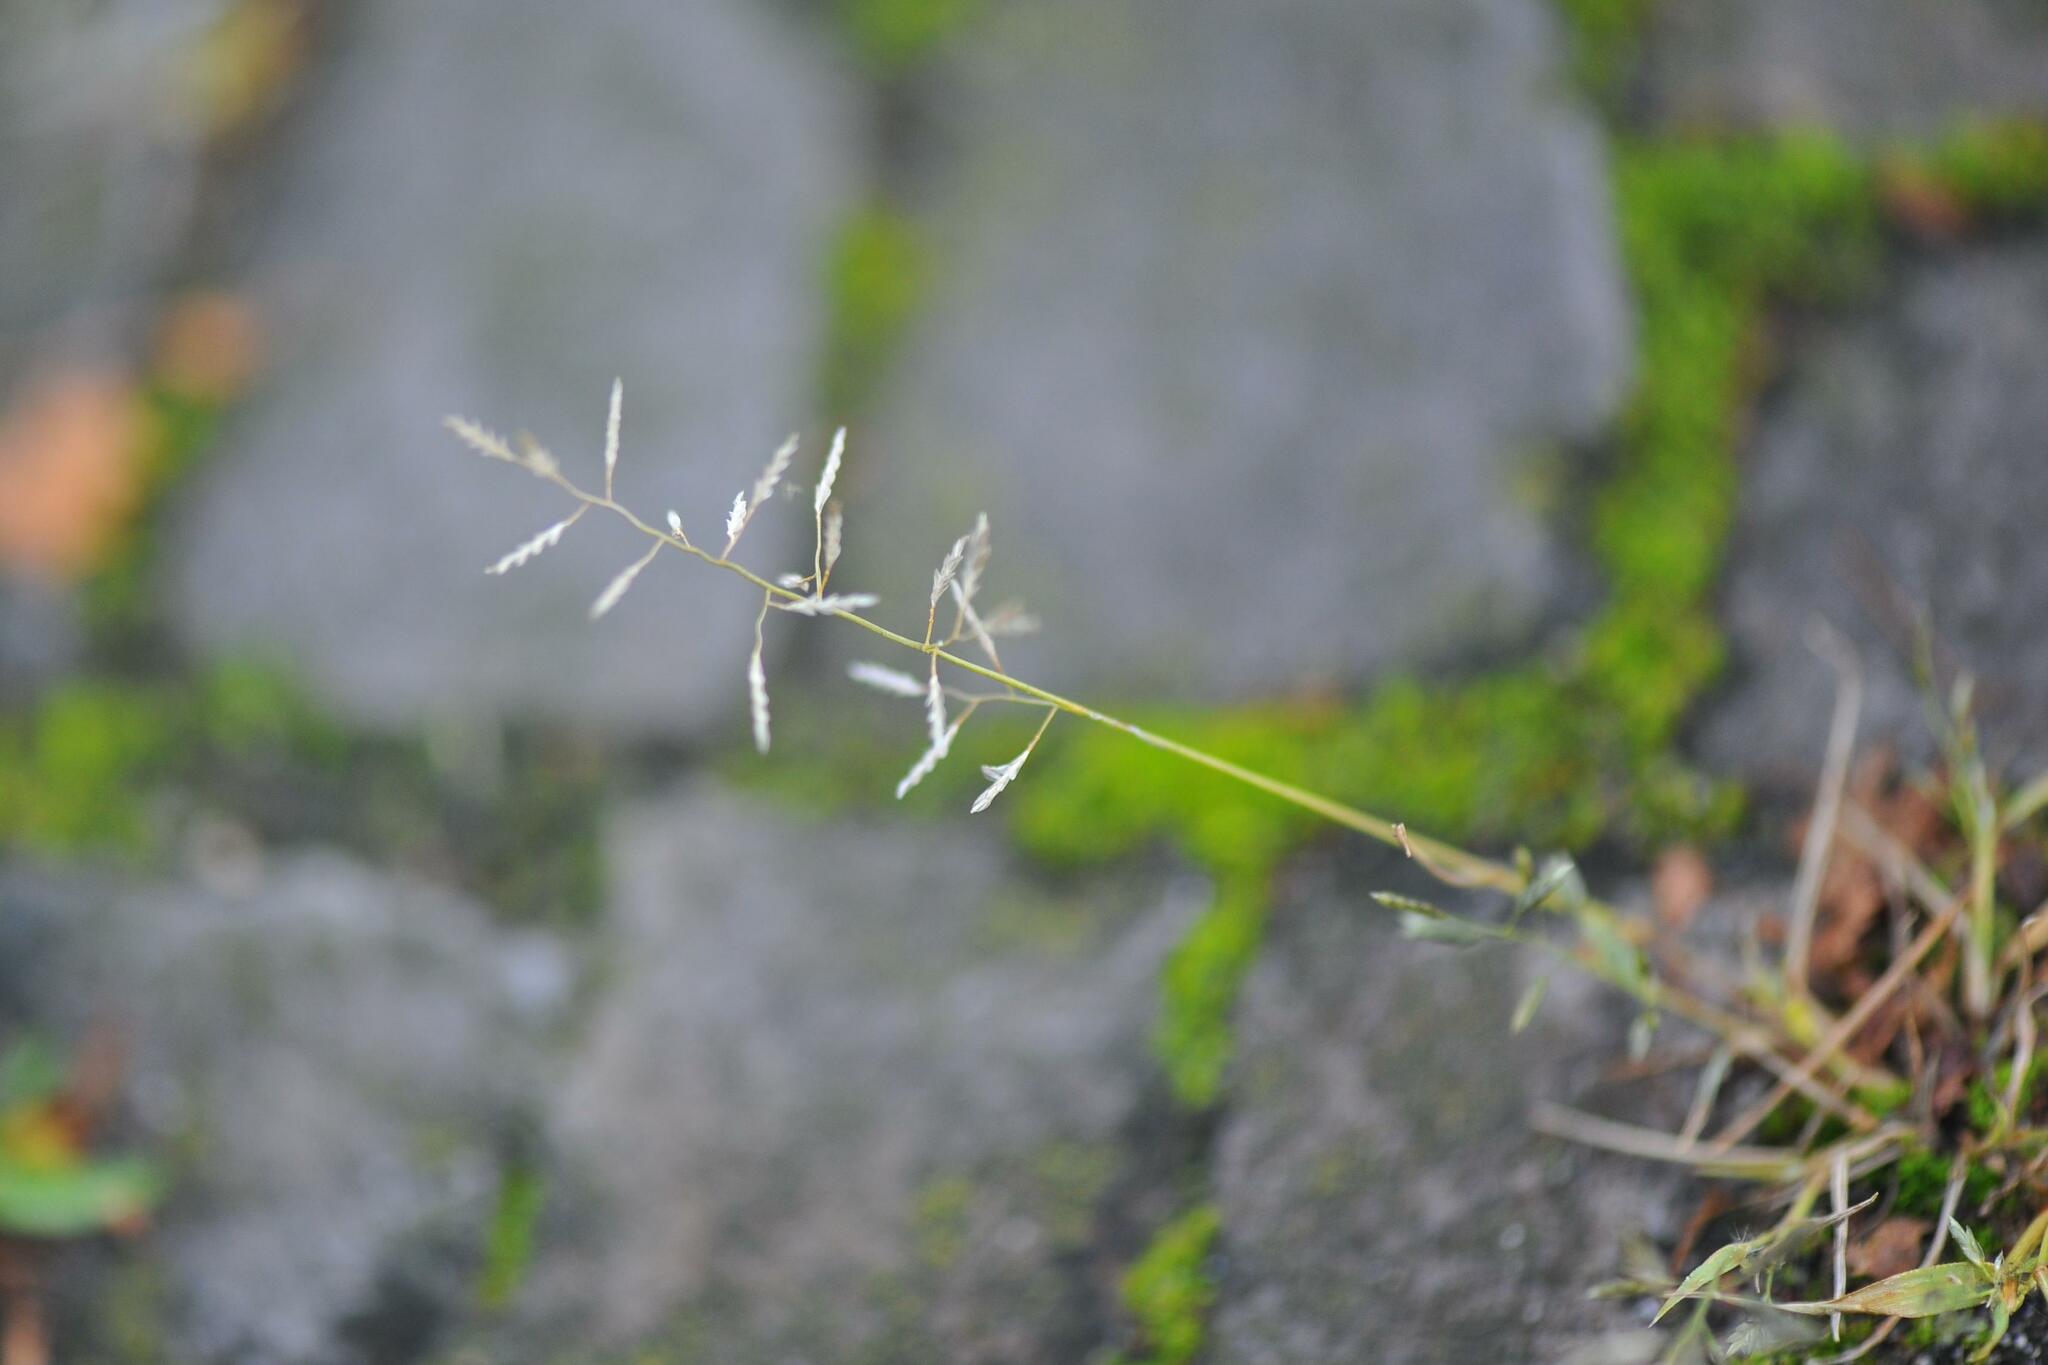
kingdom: Plantae
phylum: Tracheophyta
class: Liliopsida
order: Poales
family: Poaceae
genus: Eragrostis
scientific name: Eragrostis minor
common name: Small love-grass
